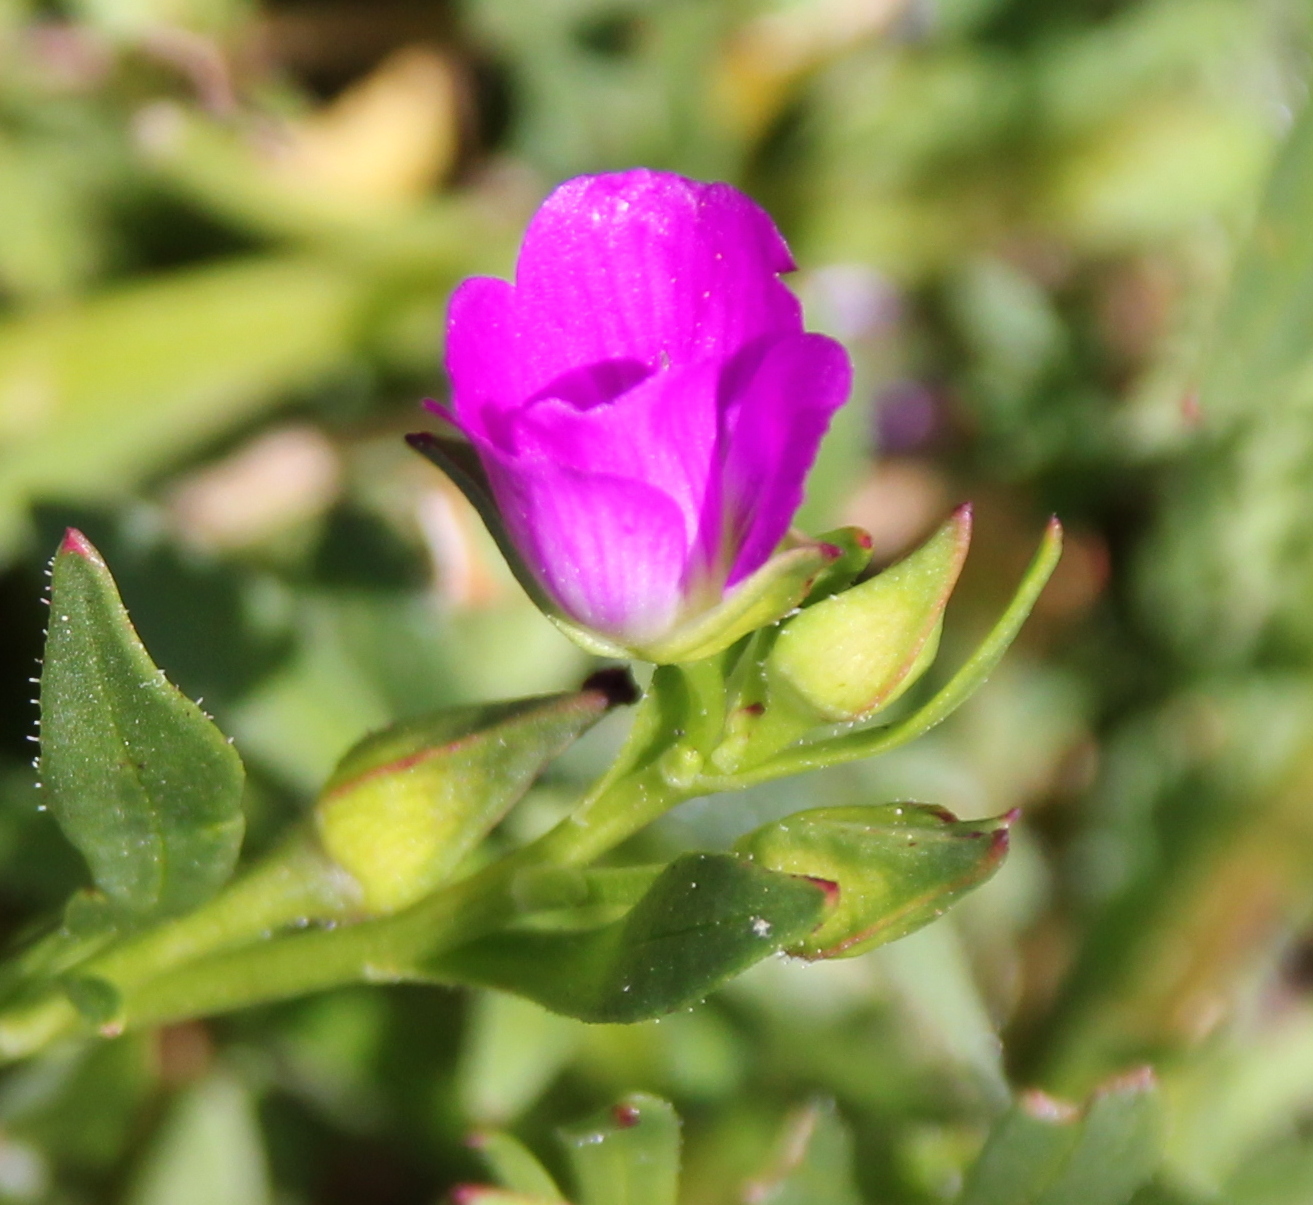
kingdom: Plantae
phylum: Tracheophyta
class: Magnoliopsida
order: Caryophyllales
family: Montiaceae
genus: Calandrinia
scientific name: Calandrinia menziesii
